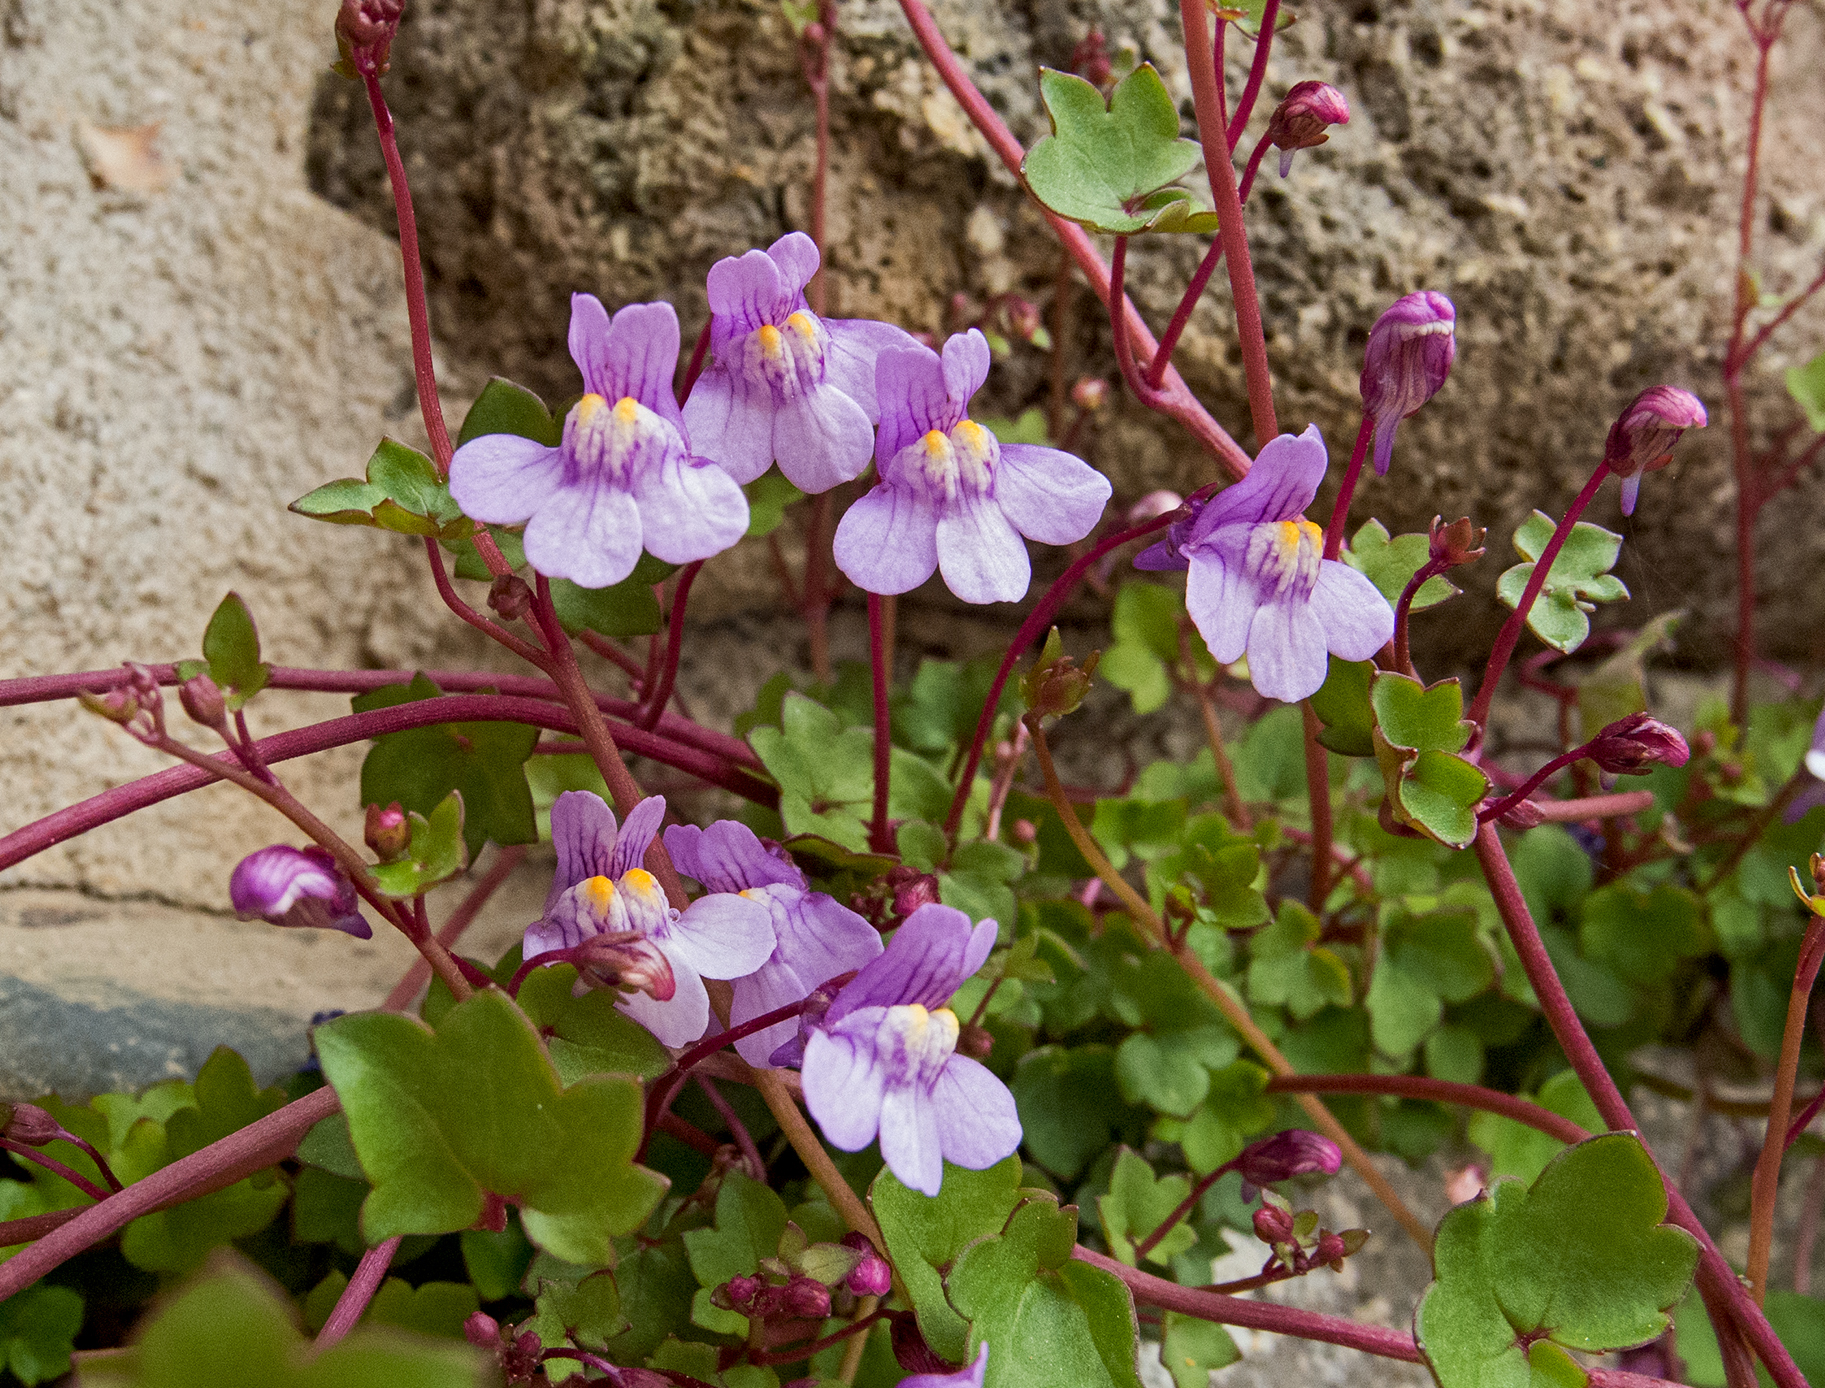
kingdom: Plantae
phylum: Tracheophyta
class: Magnoliopsida
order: Lamiales
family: Plantaginaceae
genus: Cymbalaria
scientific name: Cymbalaria muralis
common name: Ivy-leaved toadflax
